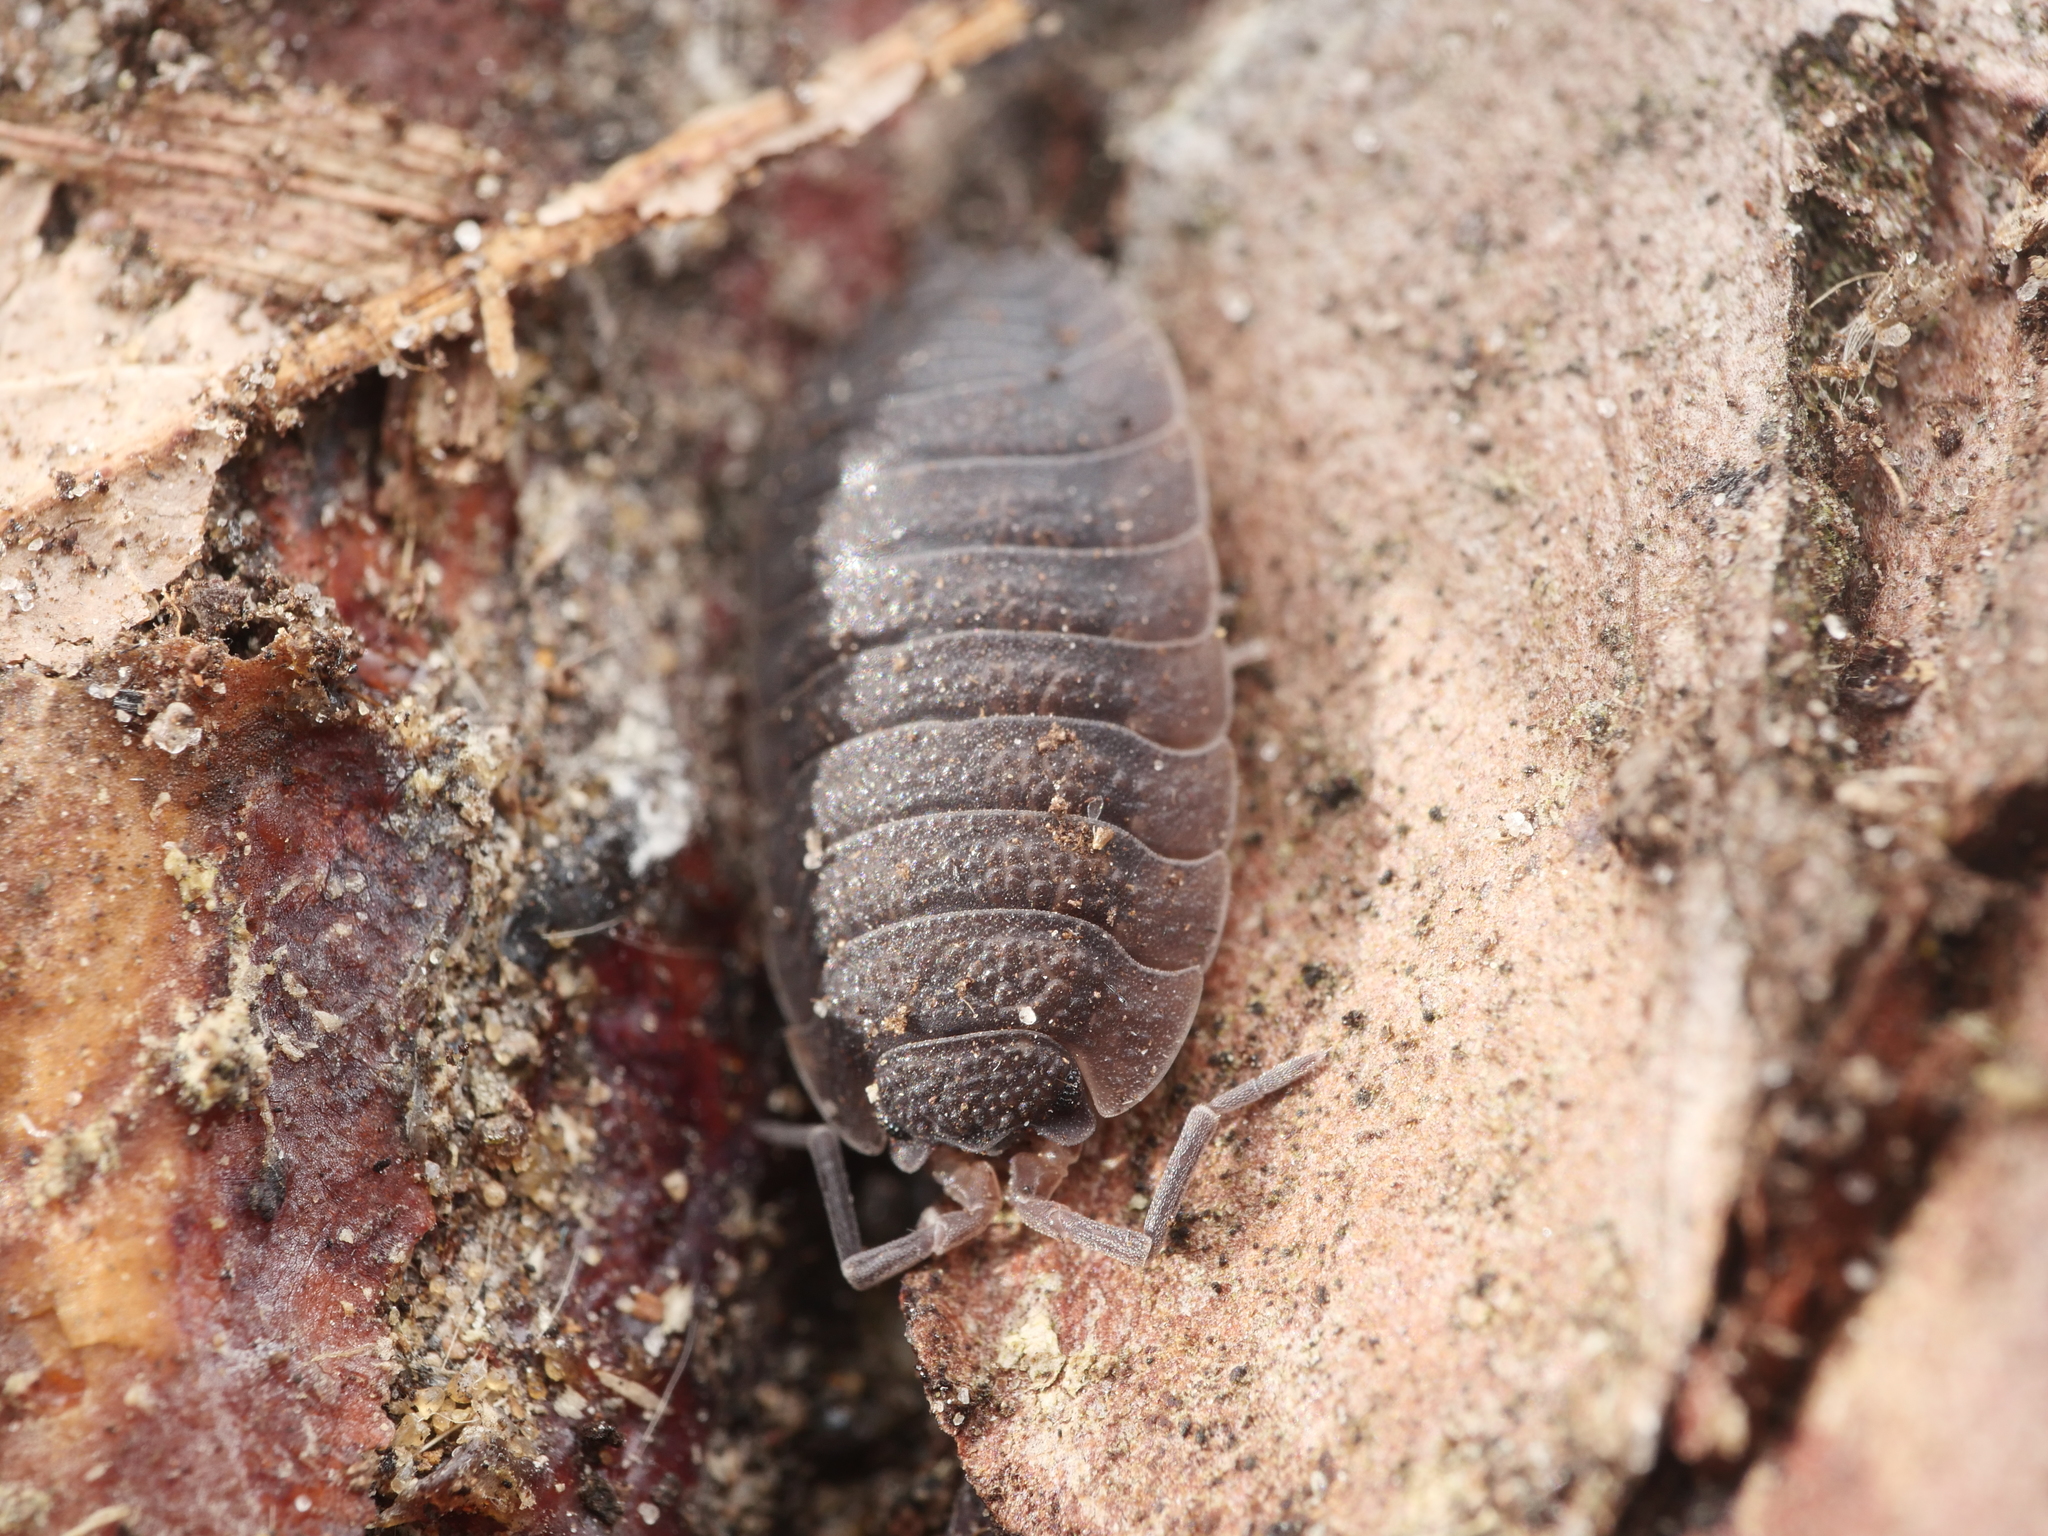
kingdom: Animalia
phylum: Arthropoda
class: Malacostraca
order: Isopoda
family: Porcellionidae
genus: Porcellio
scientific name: Porcellio scaber
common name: Common rough woodlouse
